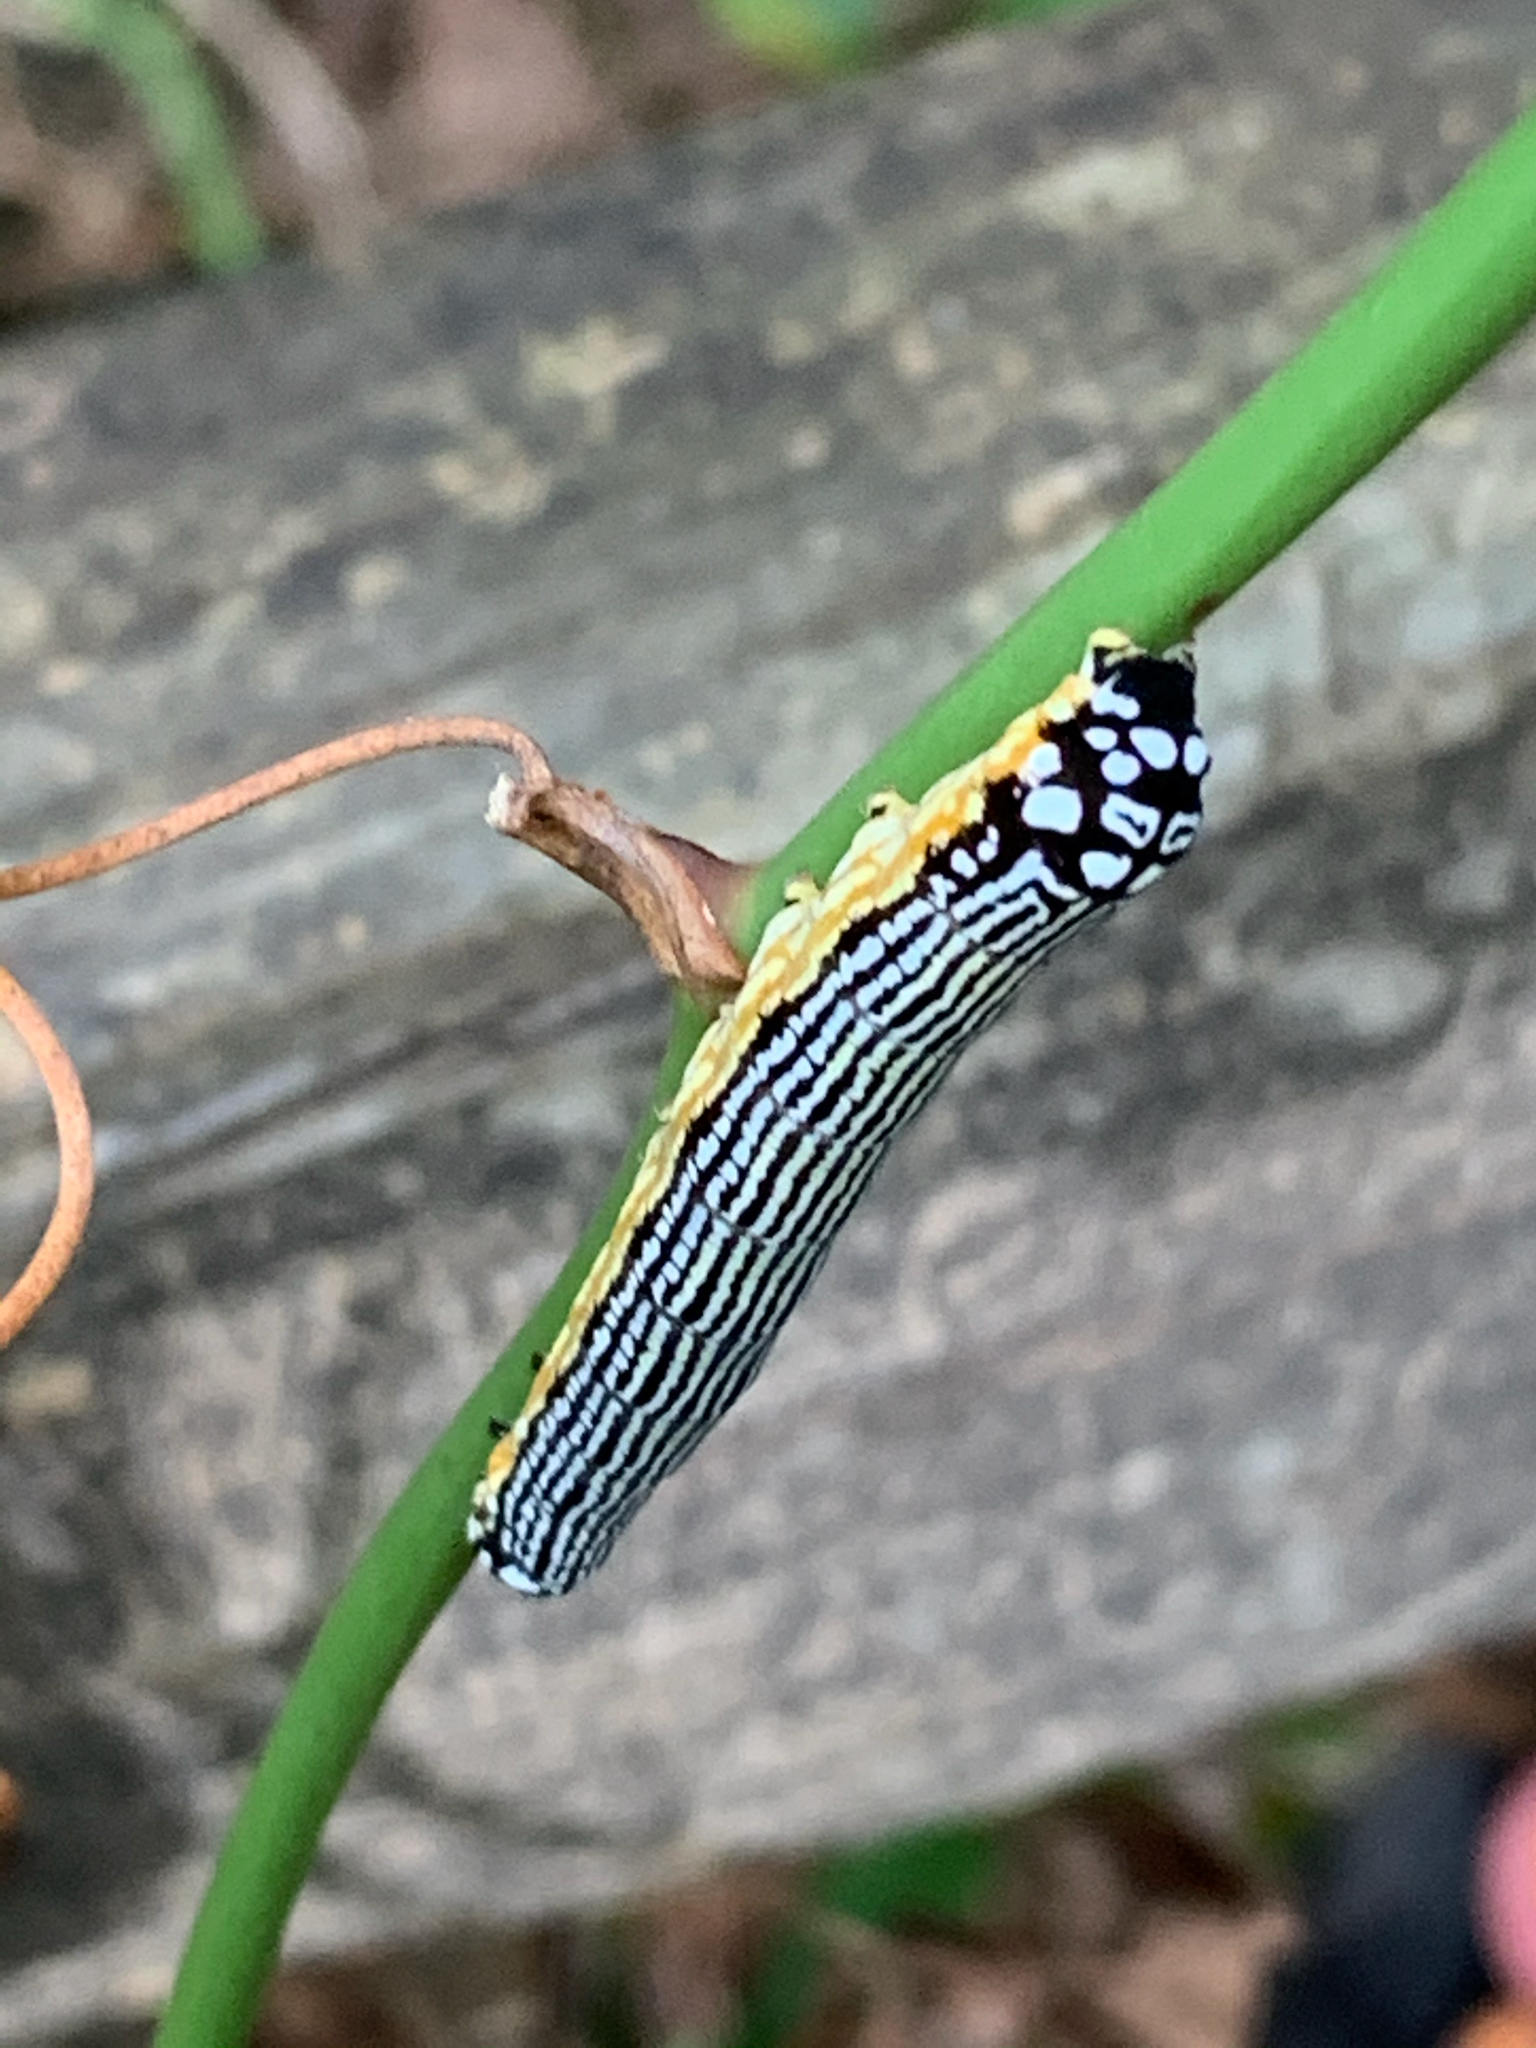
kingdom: Animalia
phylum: Arthropoda
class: Insecta
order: Lepidoptera
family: Noctuidae
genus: Phosphila
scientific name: Phosphila turbulenta
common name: Turbulent phosphila moth
